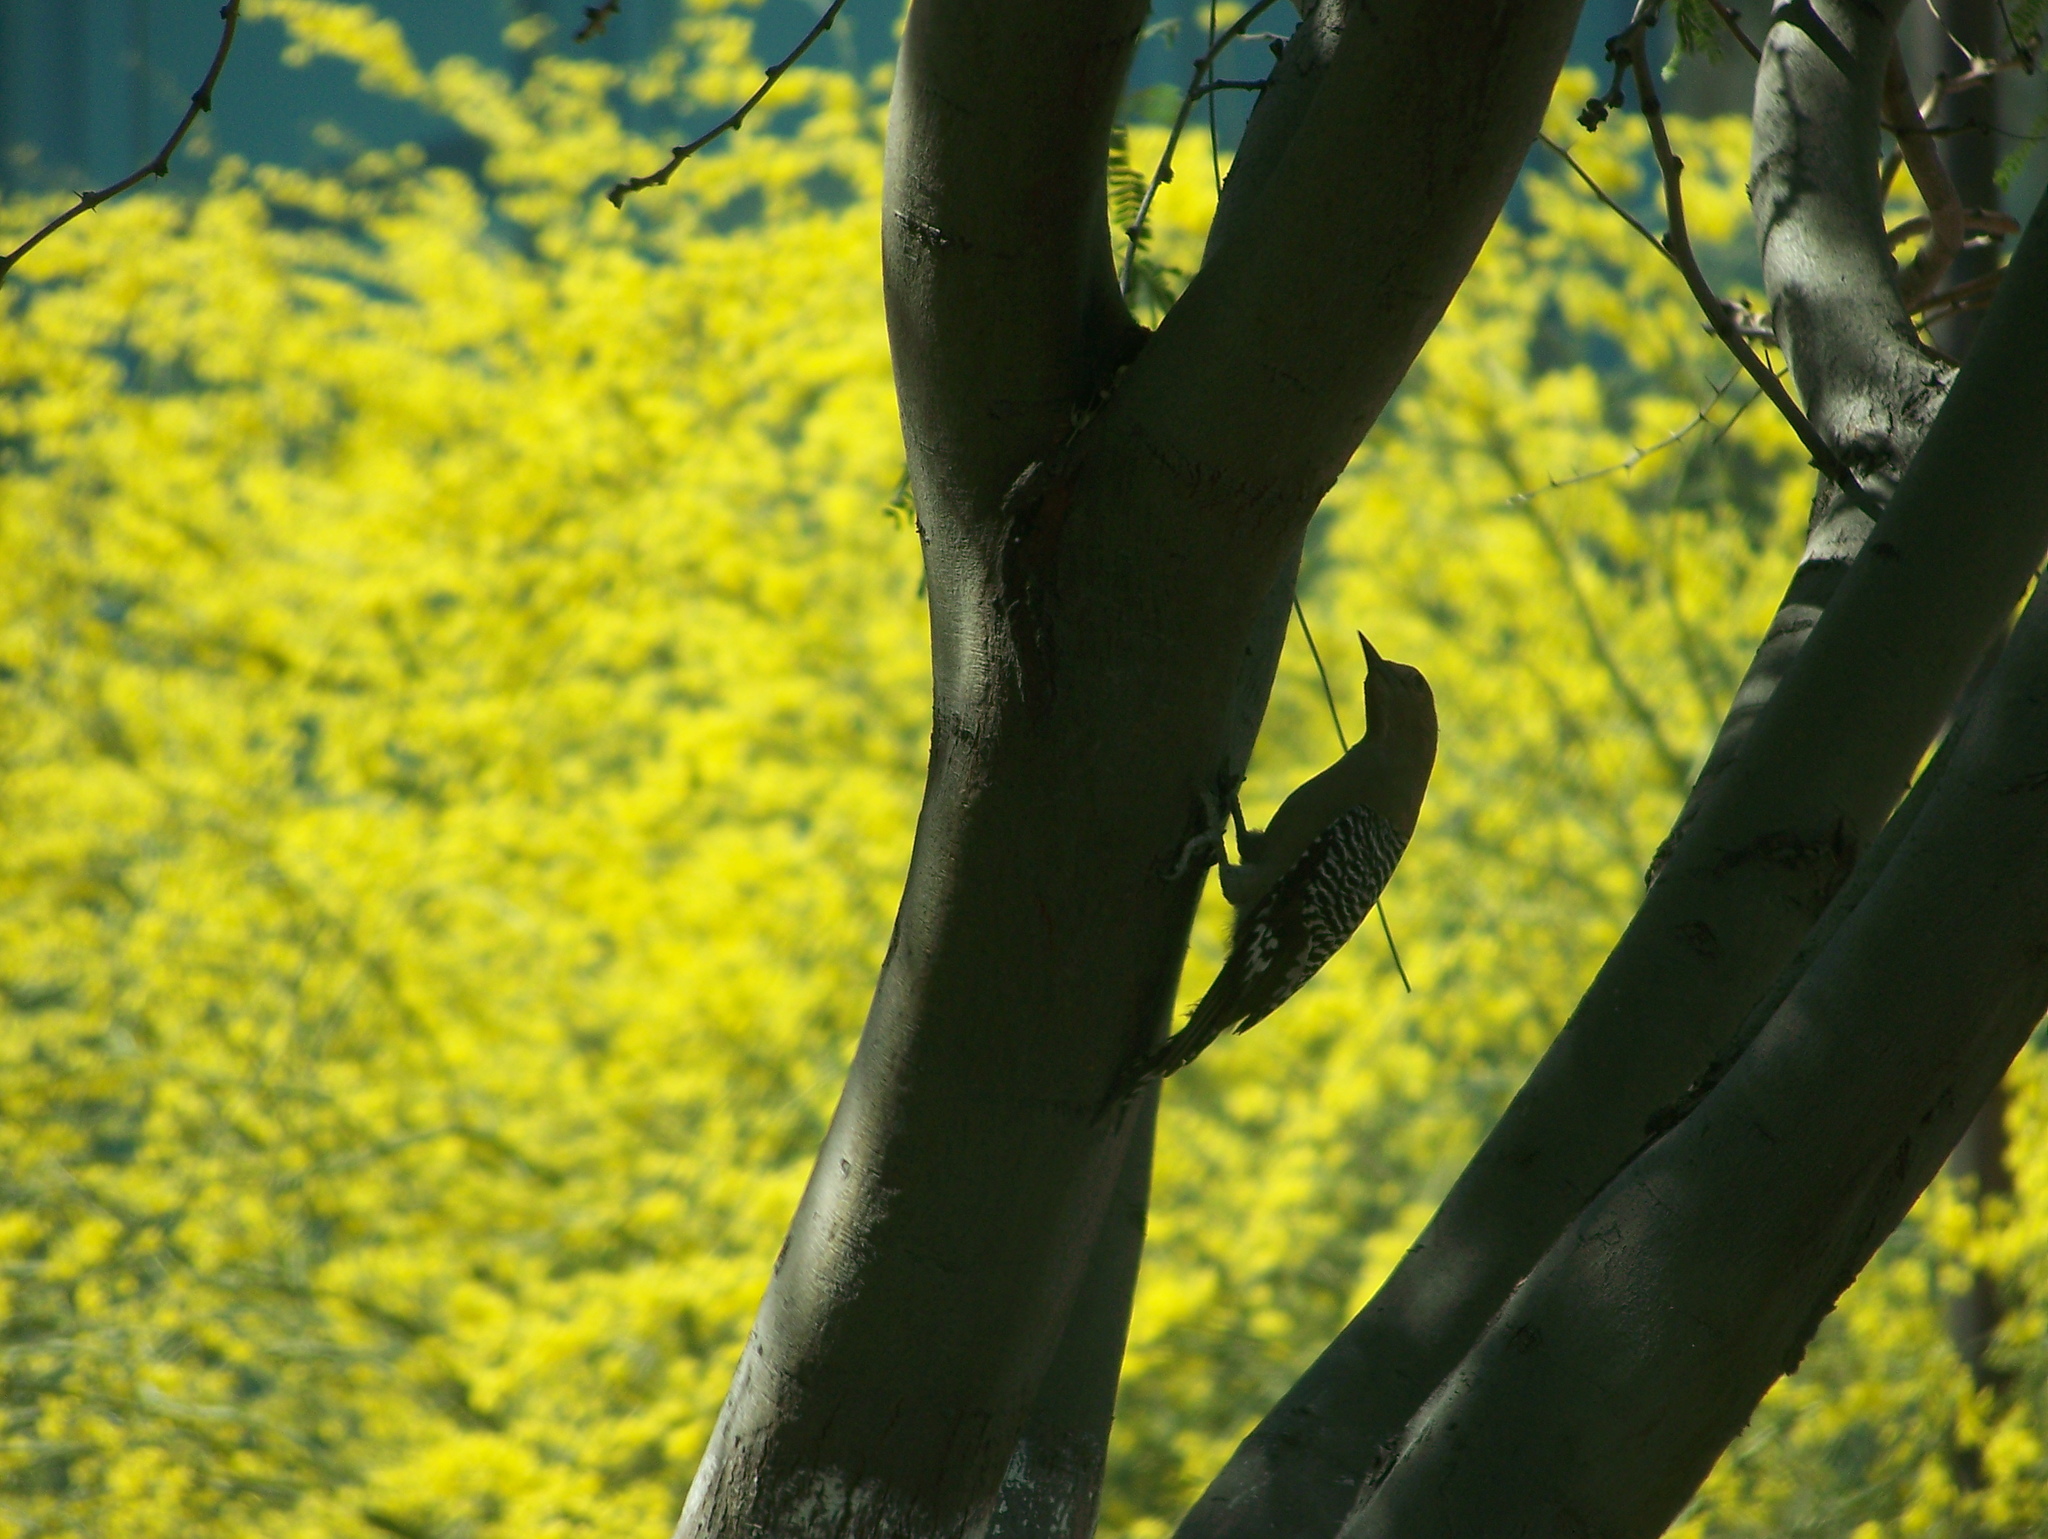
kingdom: Animalia
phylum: Chordata
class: Aves
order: Piciformes
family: Picidae
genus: Melanerpes
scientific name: Melanerpes uropygialis
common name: Gila woodpecker
